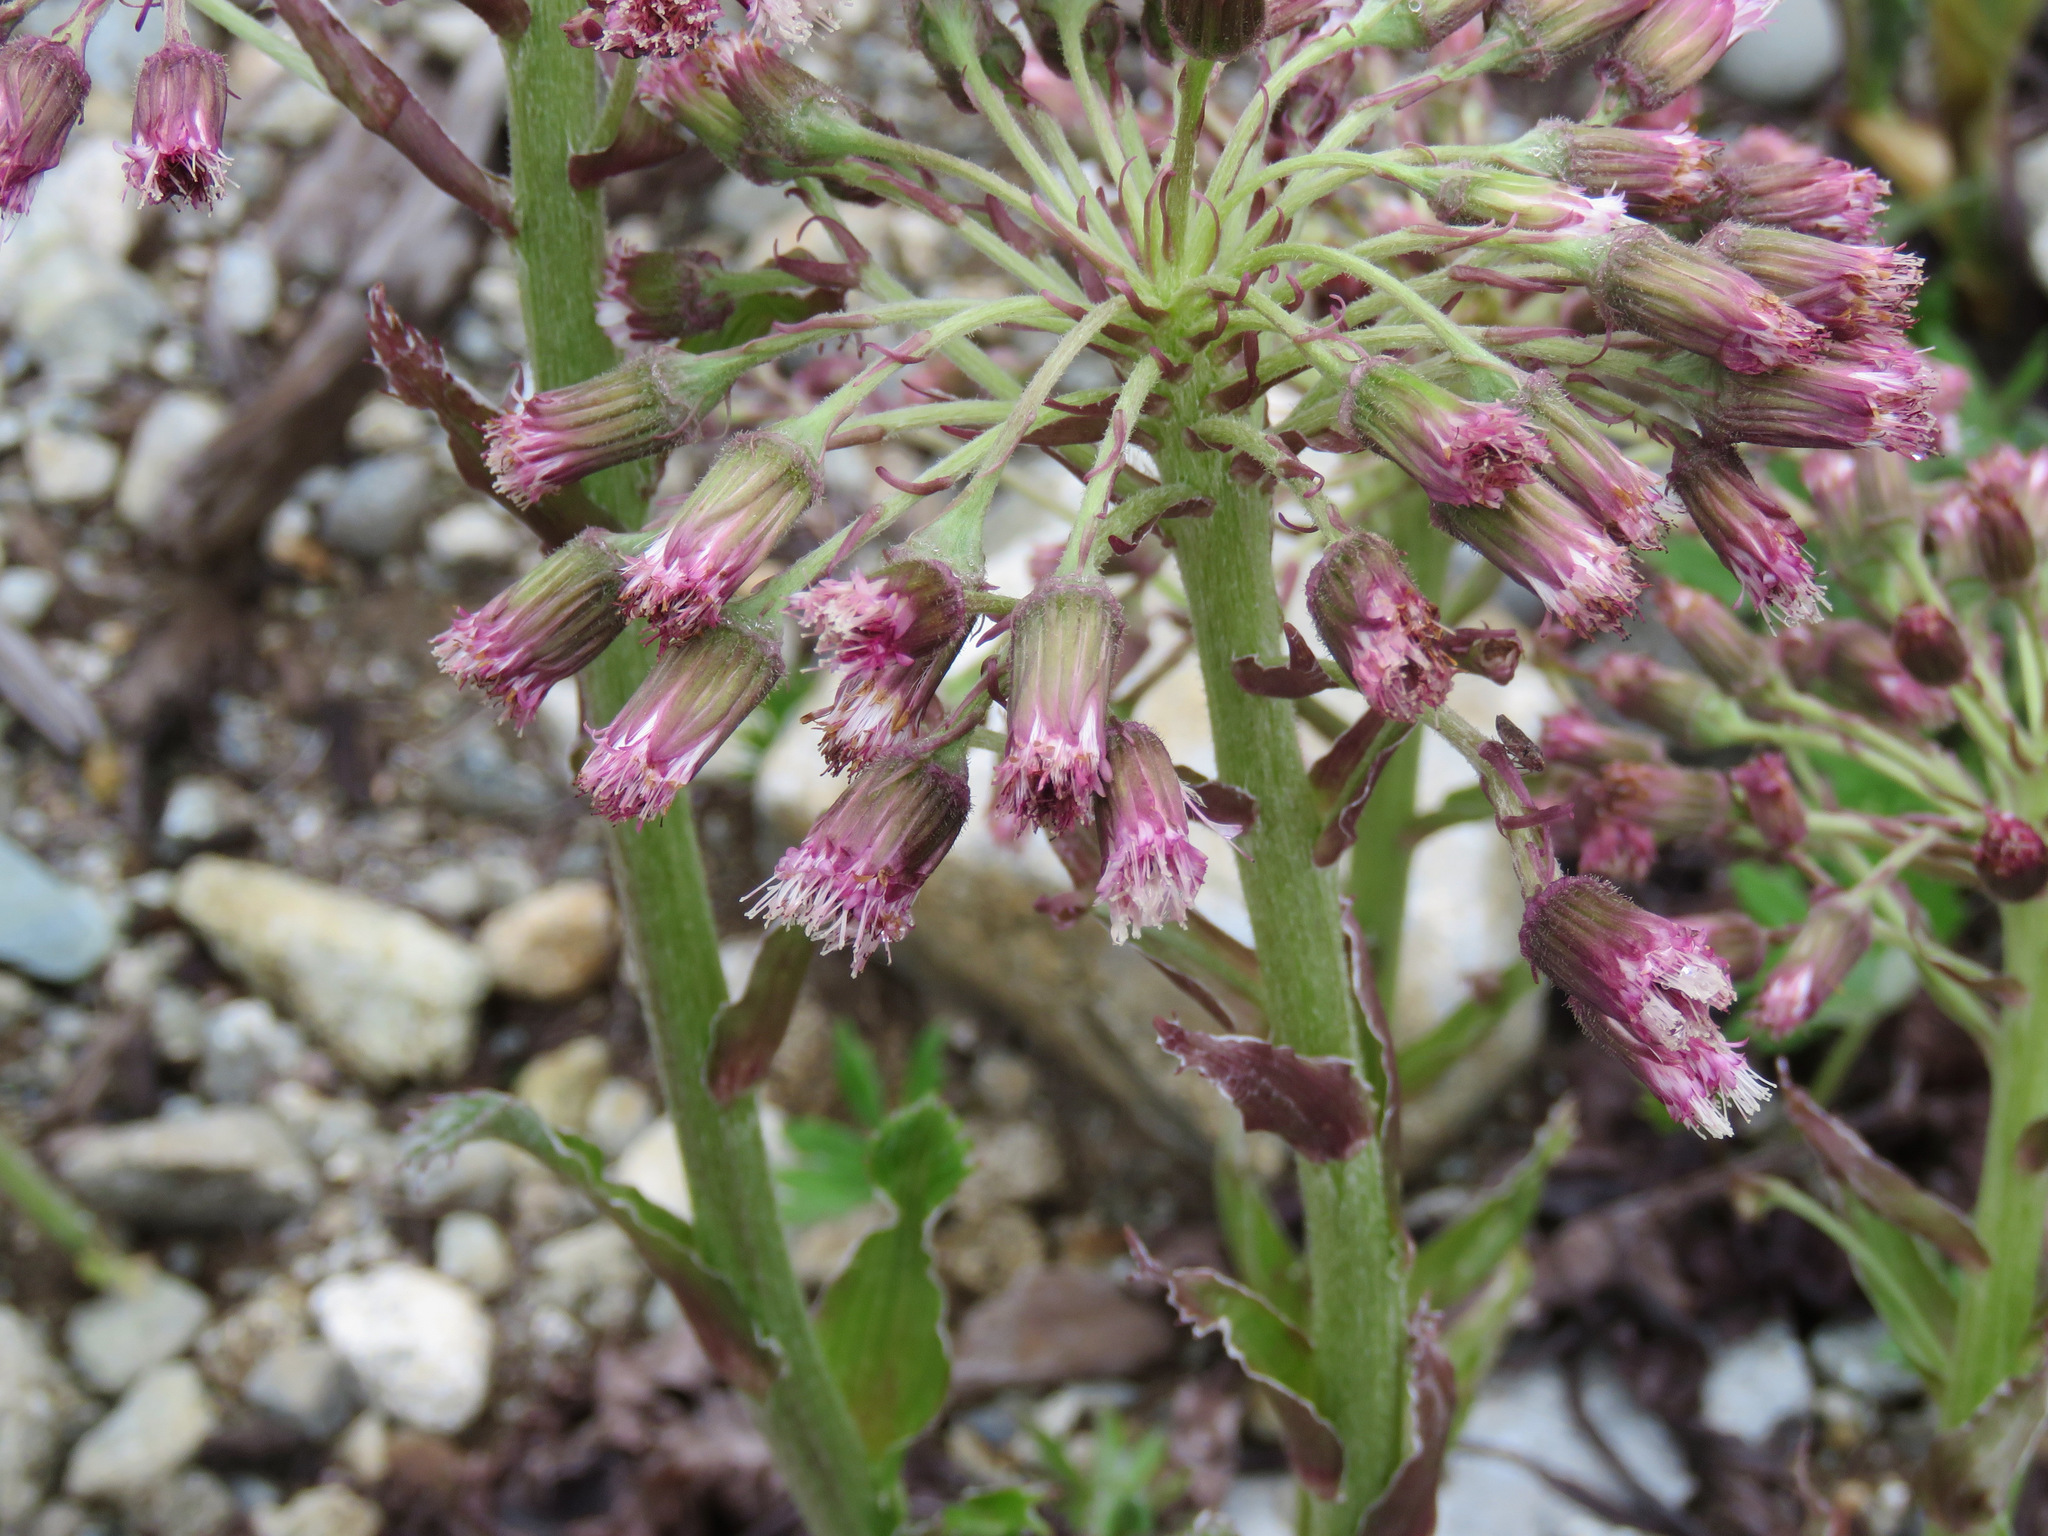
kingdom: Plantae
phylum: Tracheophyta
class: Magnoliopsida
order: Asterales
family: Asteraceae
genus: Petasites
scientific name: Petasites frigidus
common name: Arctic butterbur
